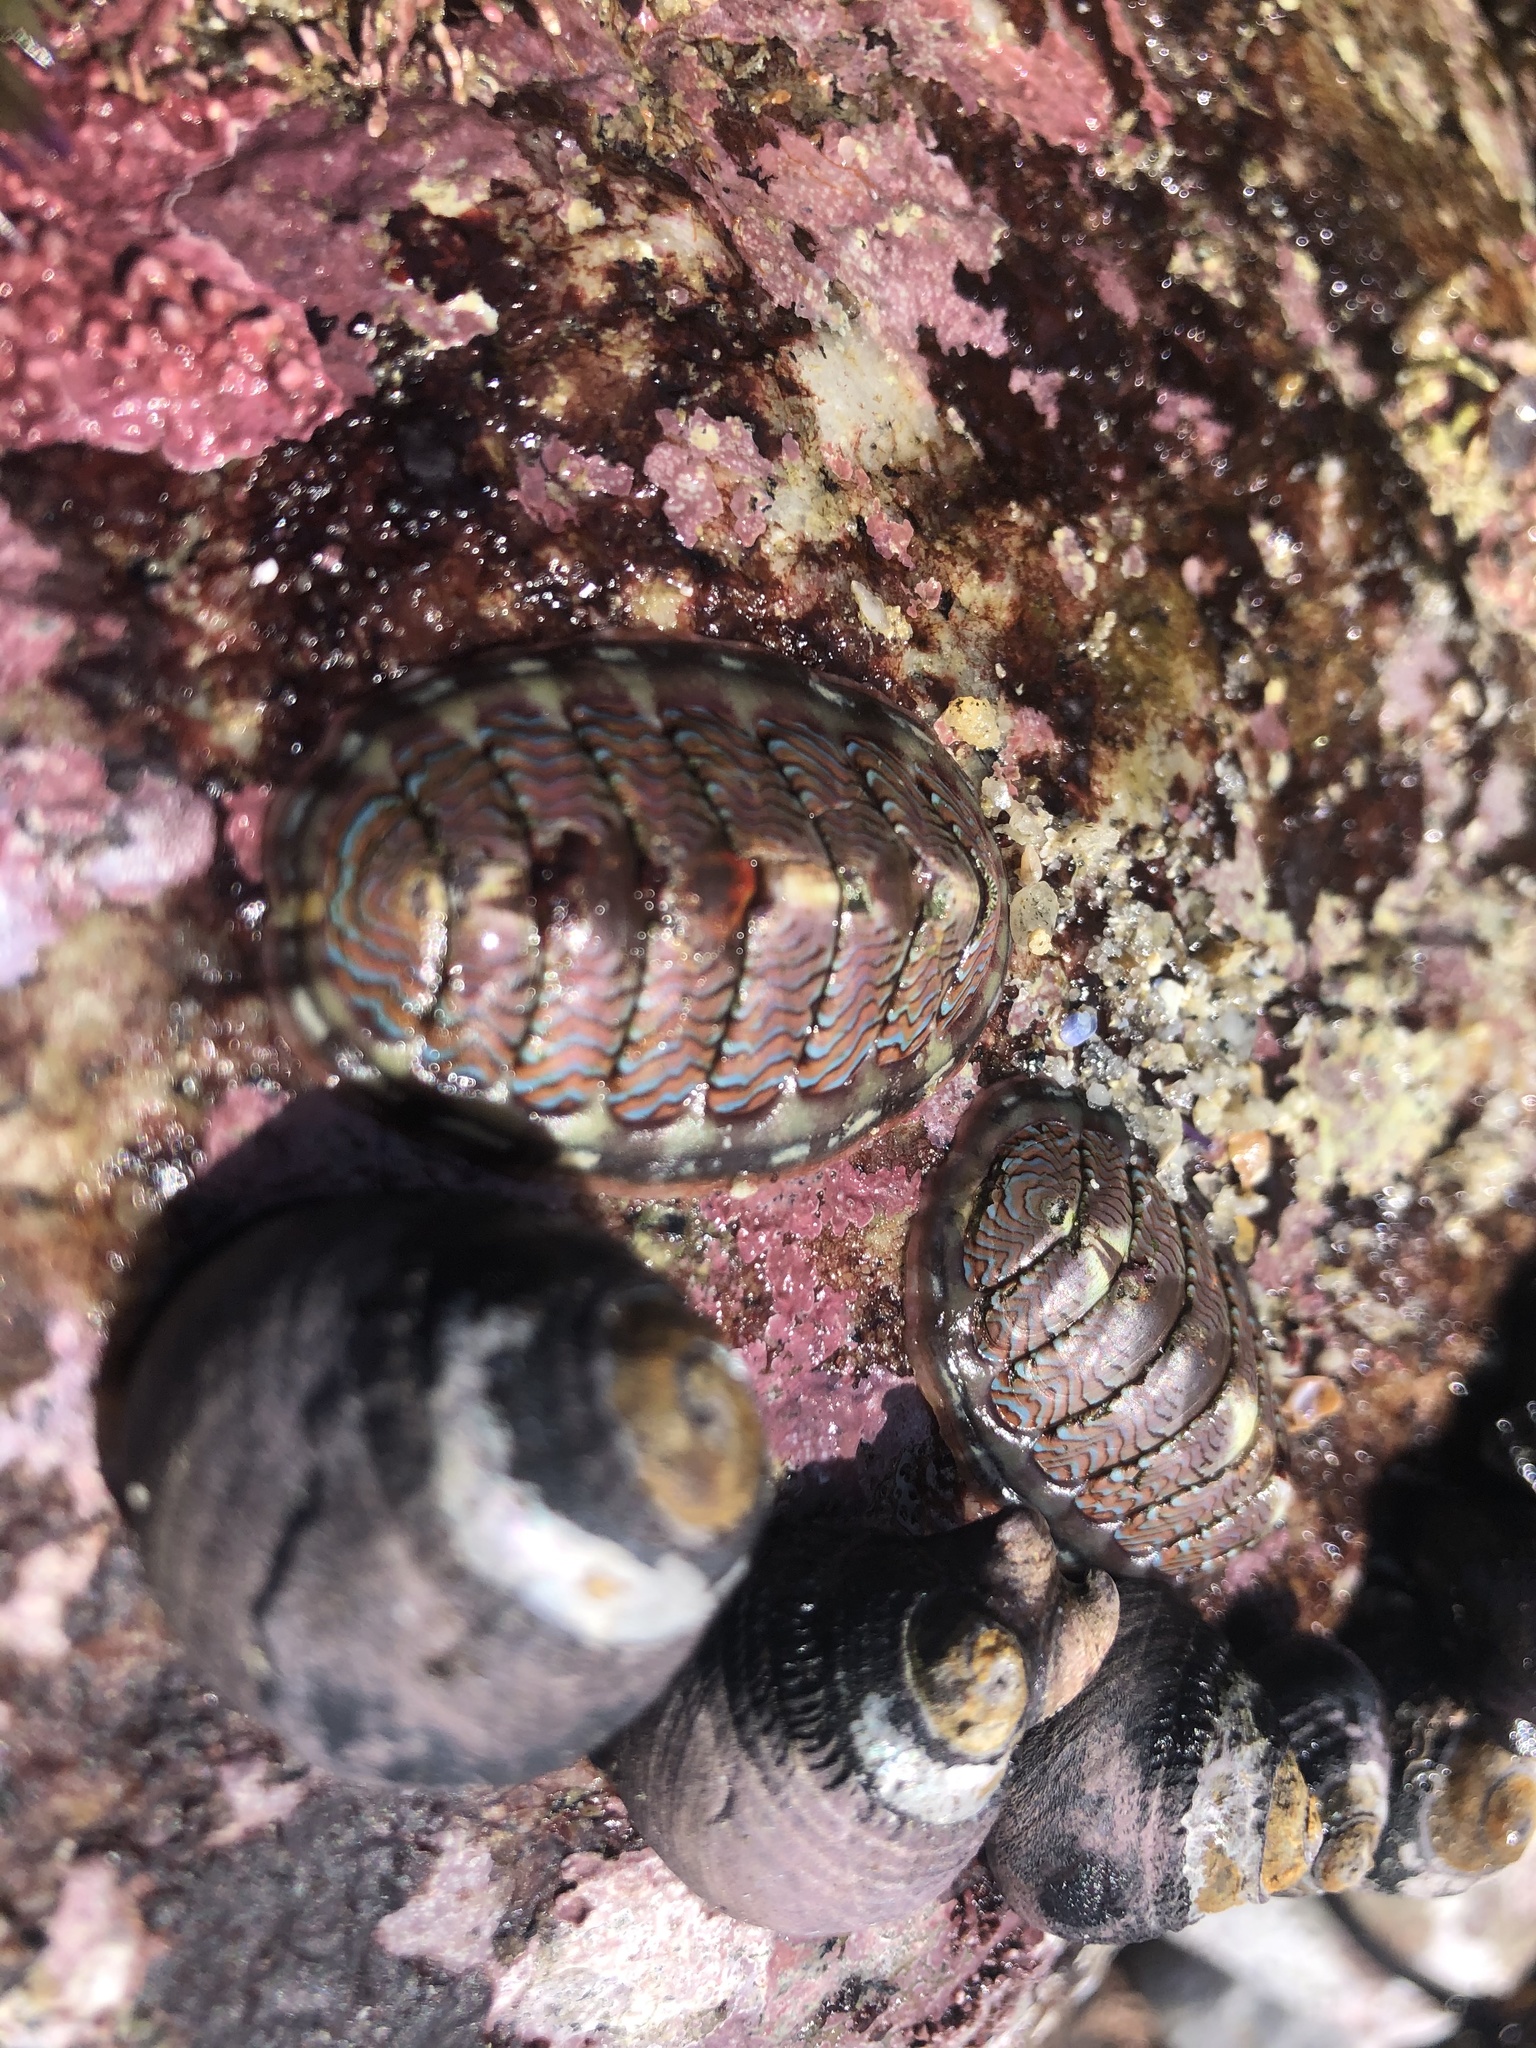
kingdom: Animalia
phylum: Mollusca
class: Polyplacophora
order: Chitonida
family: Tonicellidae
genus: Tonicella
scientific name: Tonicella lokii
